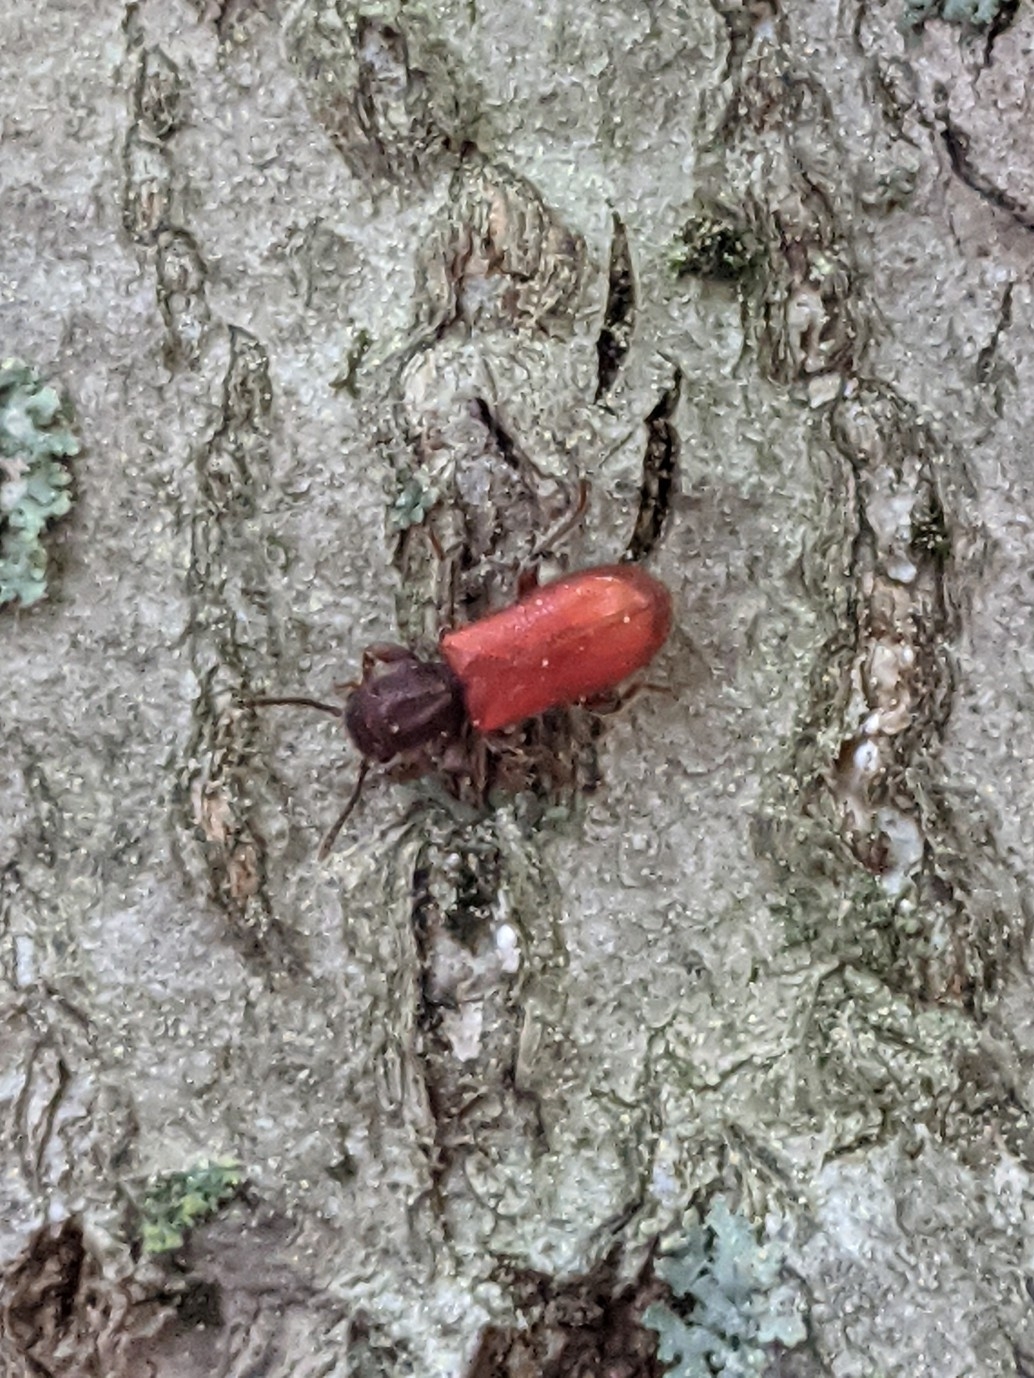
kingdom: Animalia
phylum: Arthropoda
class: Insecta
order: Coleoptera
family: Thanerocleridae
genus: Zenodosus
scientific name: Zenodosus sanguineus
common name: Blood-colored checkered beetle
